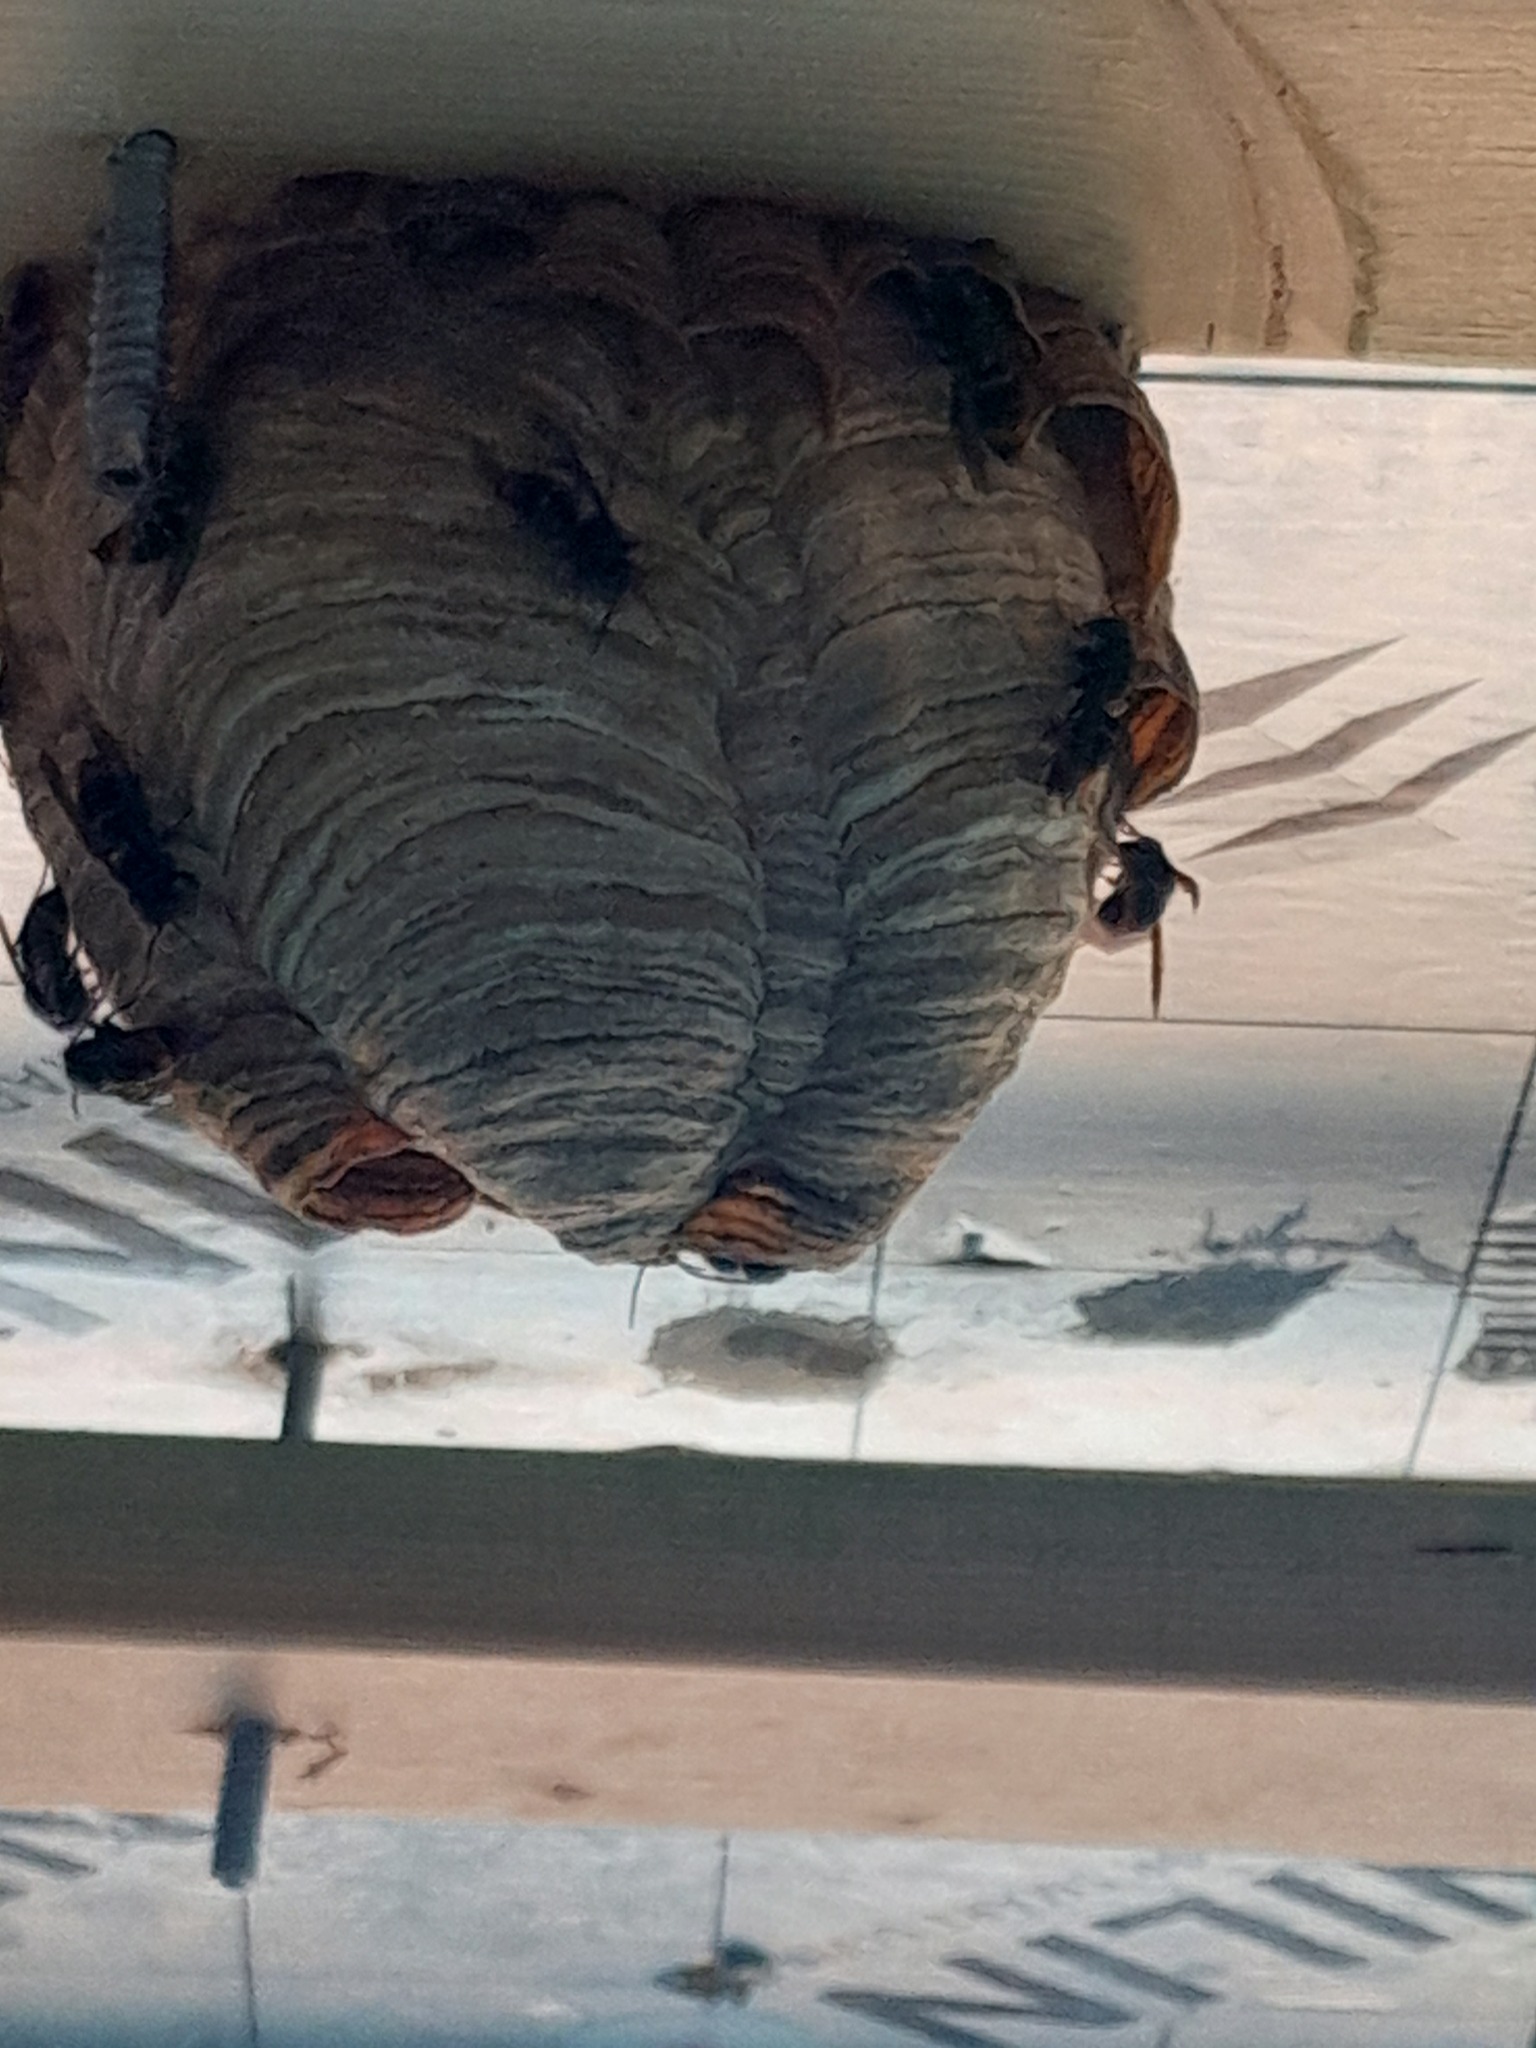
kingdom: Animalia
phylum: Arthropoda
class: Insecta
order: Hymenoptera
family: Vespidae
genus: Vespa
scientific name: Vespa velutina
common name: Asian hornet
